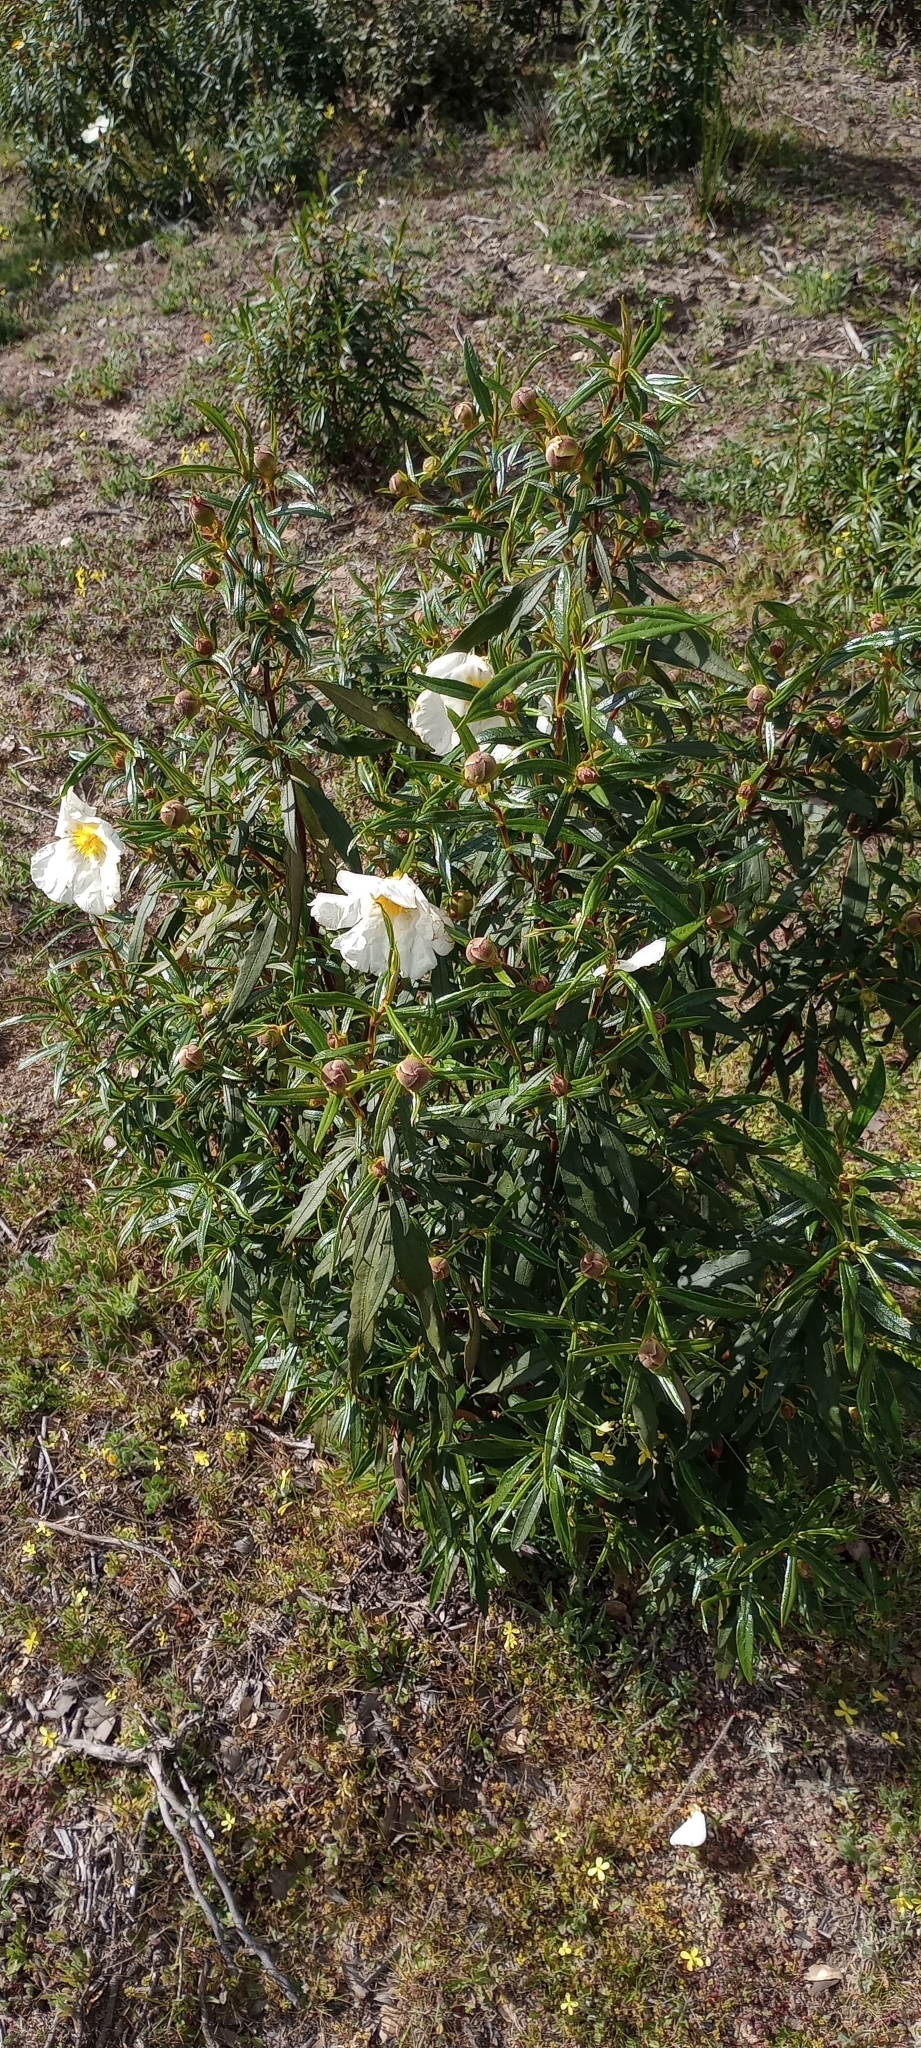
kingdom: Plantae
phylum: Tracheophyta
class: Magnoliopsida
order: Malvales
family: Cistaceae
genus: Cistus
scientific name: Cistus ladanifer
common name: Common gum cistus
